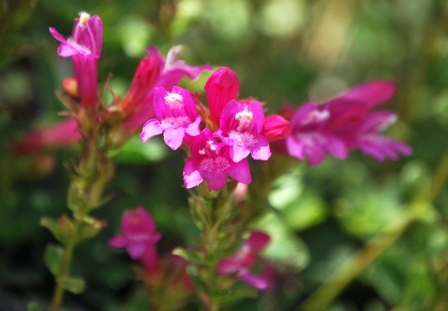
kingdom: Plantae
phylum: Tracheophyta
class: Magnoliopsida
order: Lamiales
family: Plantaginaceae
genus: Penstemon
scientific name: Penstemon newberryi
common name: Mountain-pride
